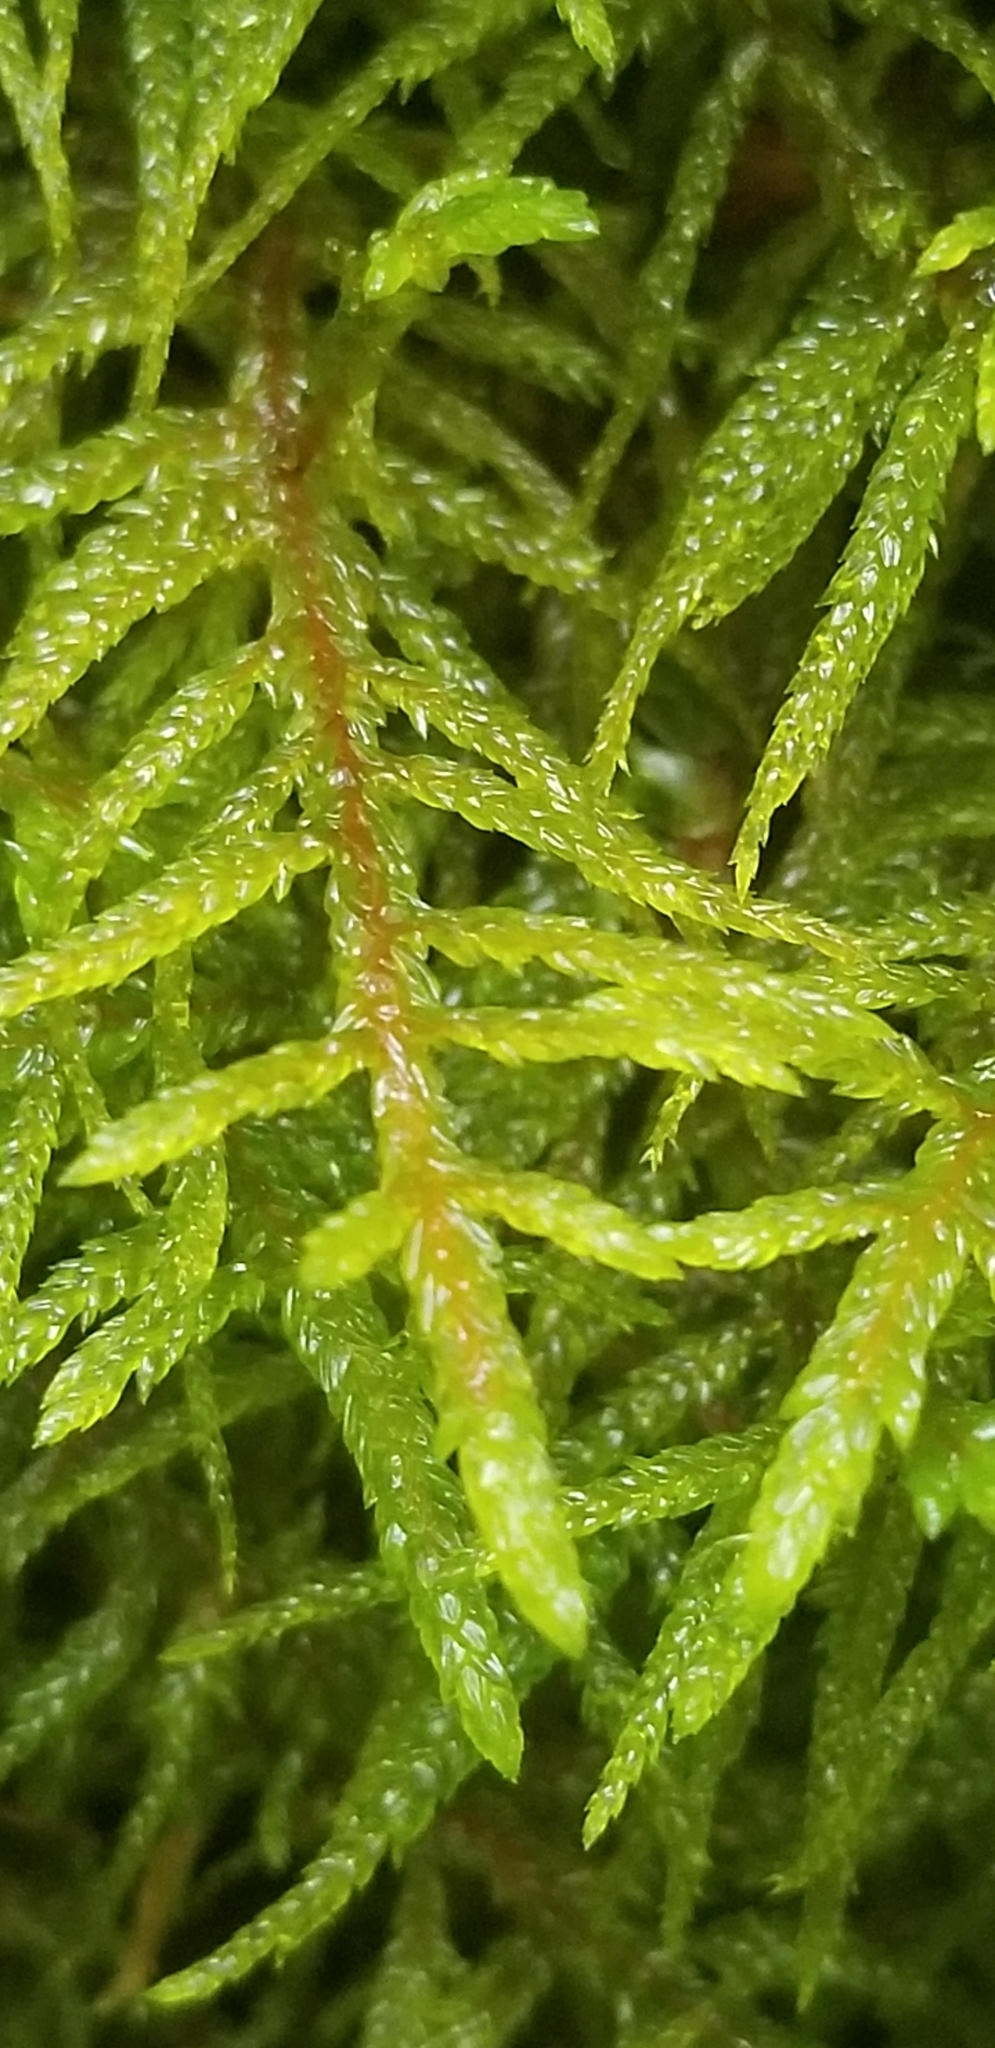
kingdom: Plantae
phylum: Bryophyta
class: Bryopsida
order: Hypnales
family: Hylocomiaceae
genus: Pleurozium
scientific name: Pleurozium schreberi
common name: Red-stemmed feather moss
